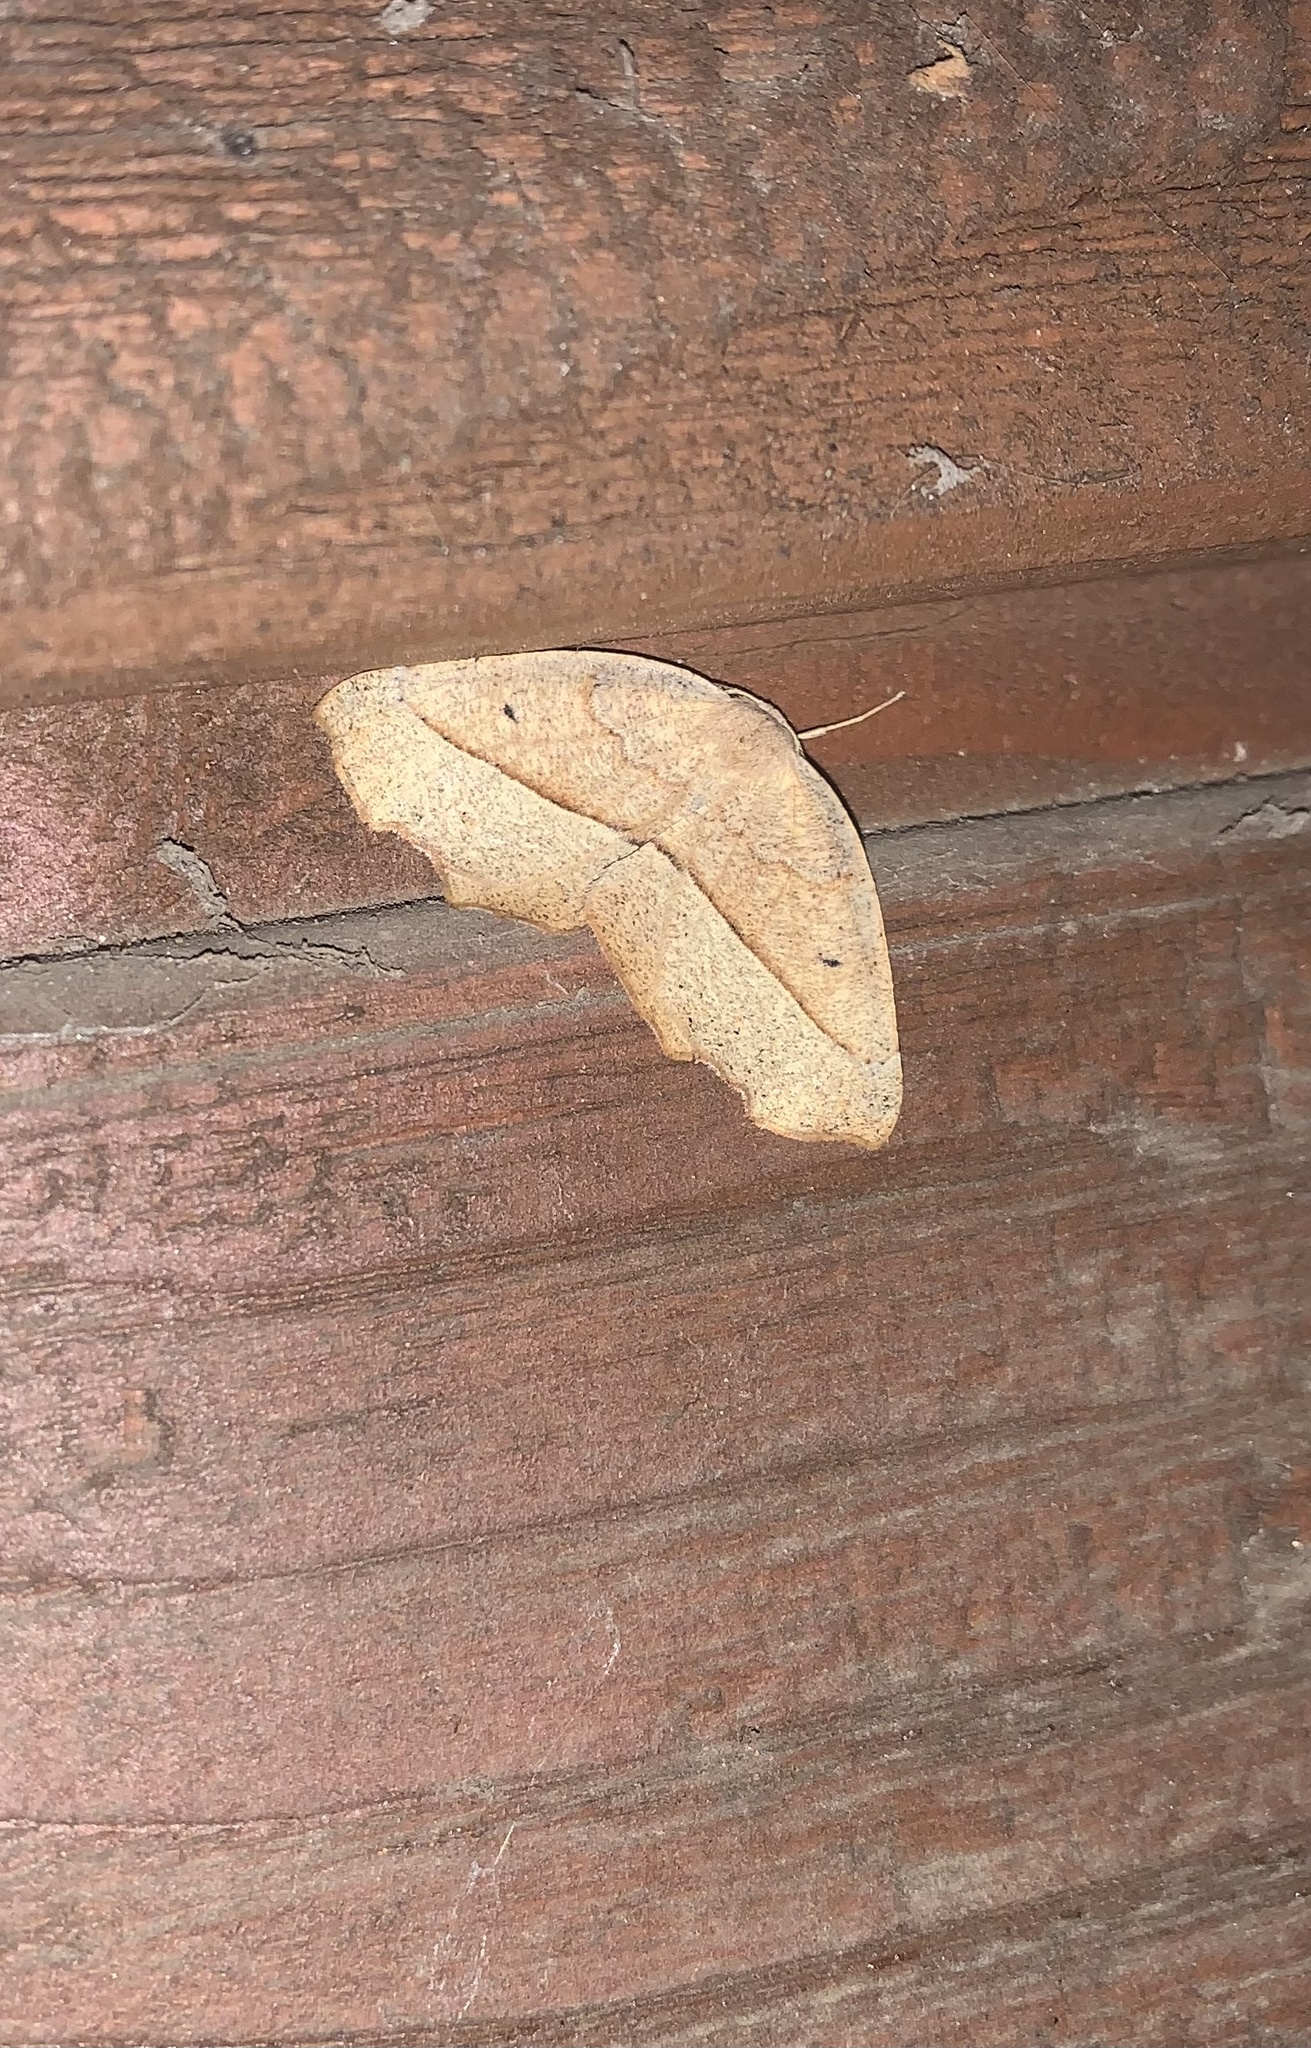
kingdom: Animalia
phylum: Arthropoda
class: Insecta
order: Lepidoptera
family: Geometridae
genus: Syncirsodes
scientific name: Syncirsodes primata
